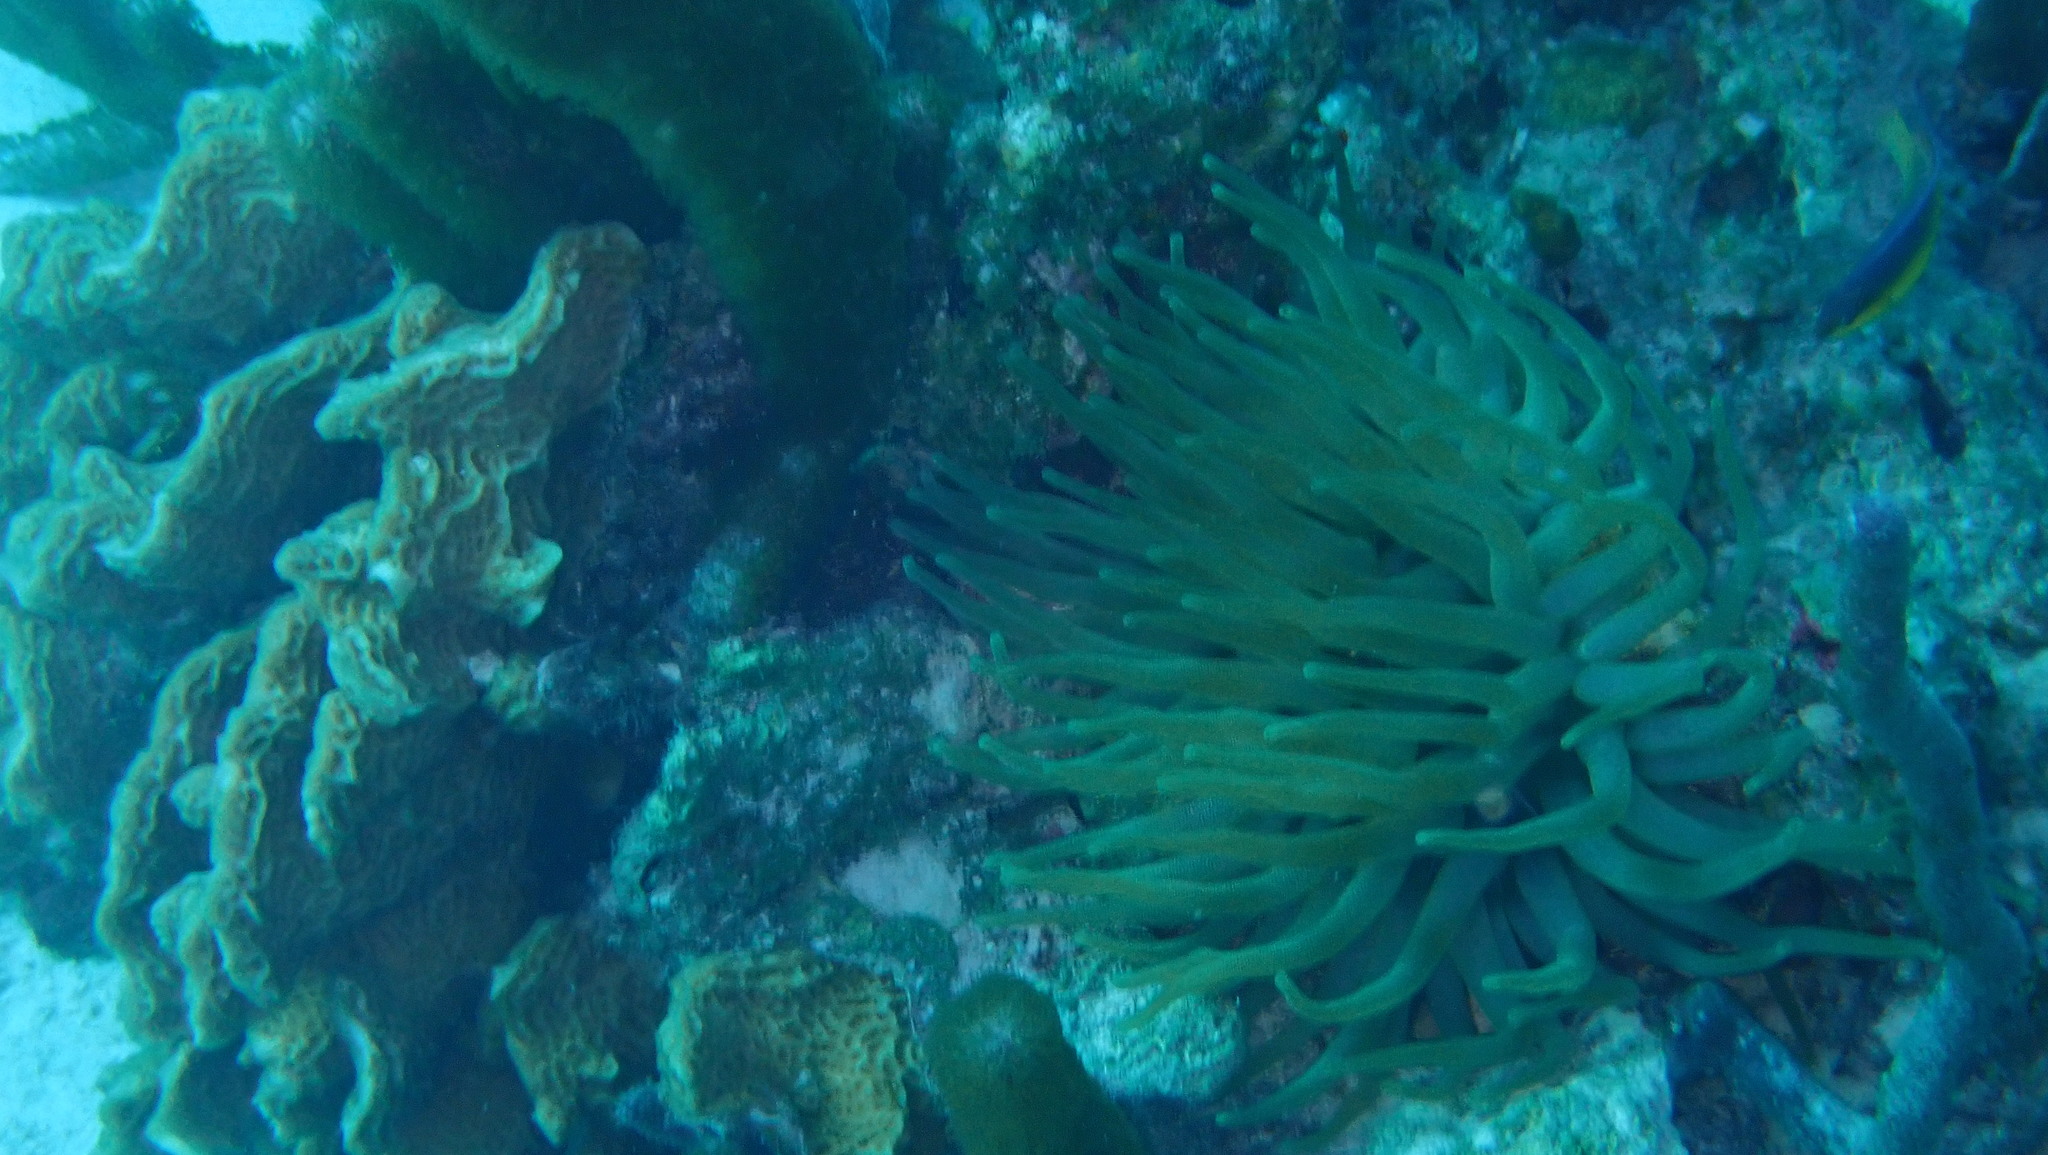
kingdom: Animalia
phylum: Cnidaria
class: Anthozoa
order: Actiniaria
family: Actiniidae
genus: Condylactis
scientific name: Condylactis gigantea
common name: Giant caribbean anemone
